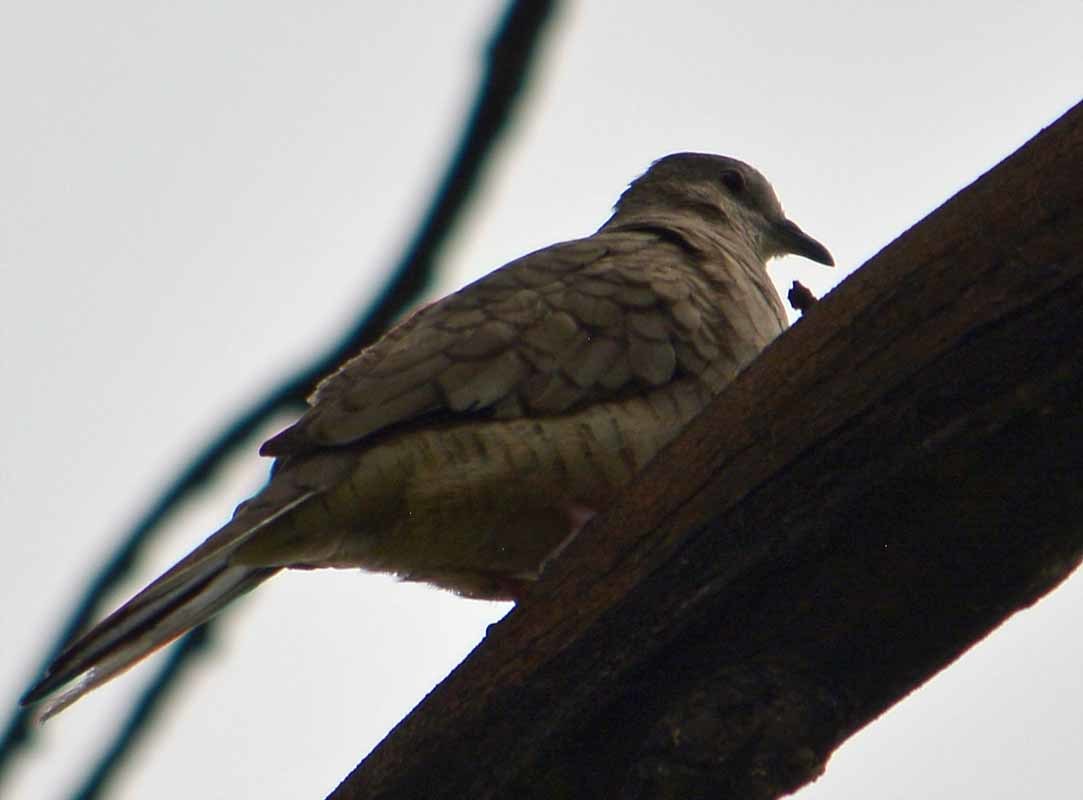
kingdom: Animalia
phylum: Chordata
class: Aves
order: Columbiformes
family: Columbidae
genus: Columbina
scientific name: Columbina inca
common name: Inca dove
